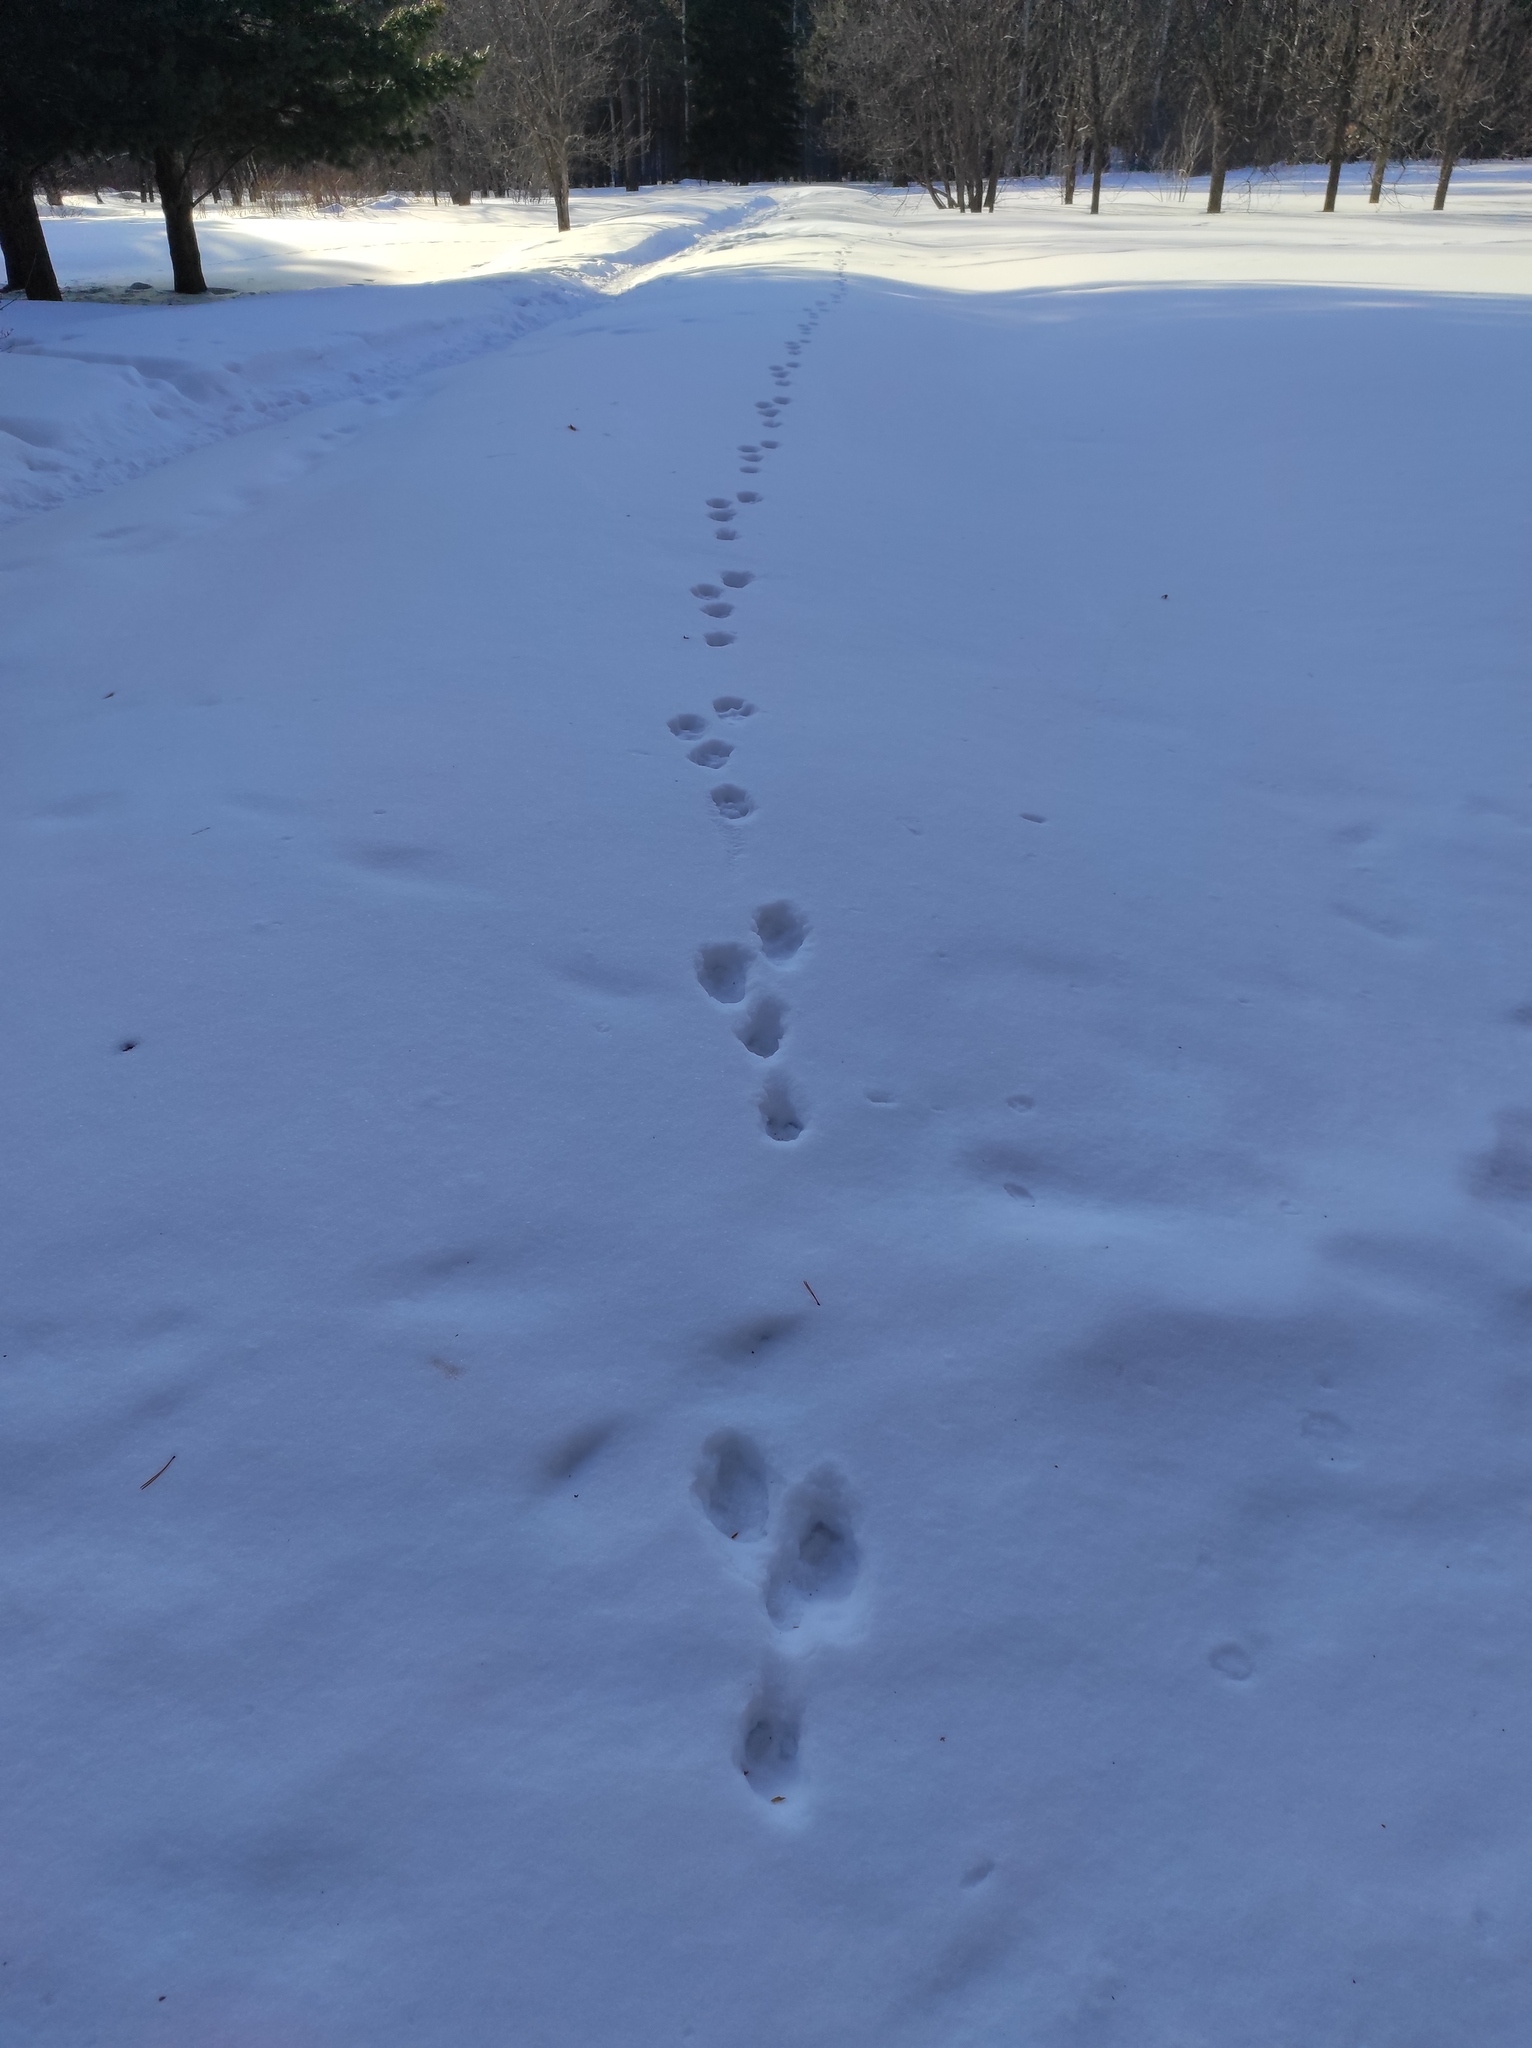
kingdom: Animalia
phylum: Chordata
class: Mammalia
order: Lagomorpha
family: Leporidae
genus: Lepus
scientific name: Lepus timidus
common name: Mountain hare
